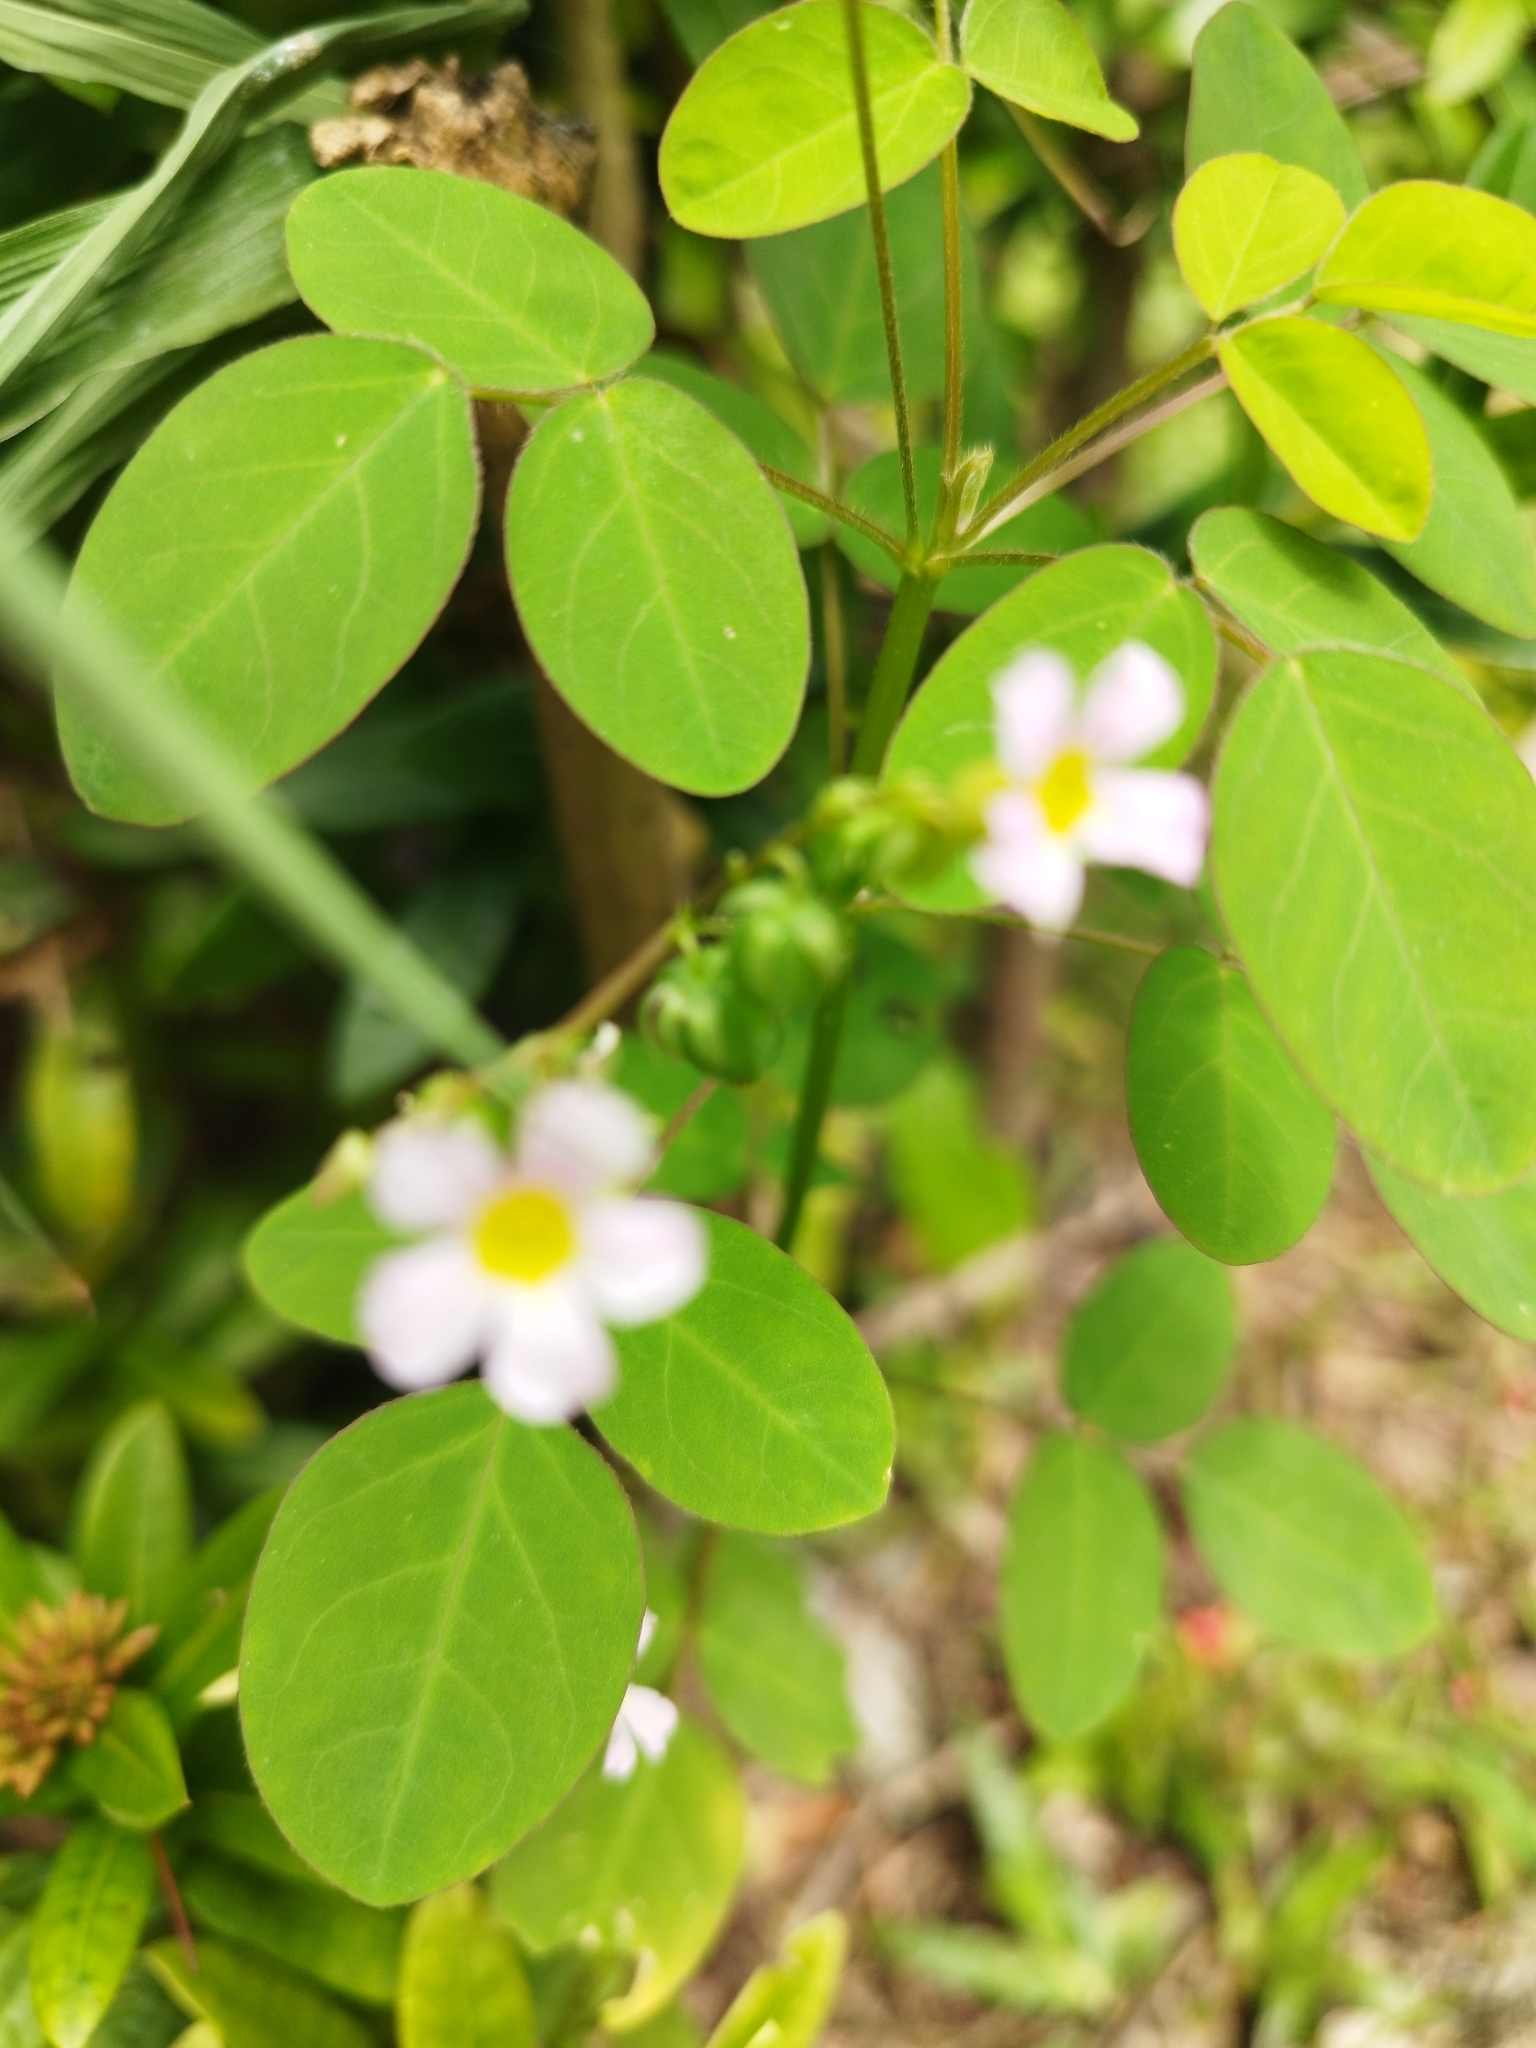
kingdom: Plantae
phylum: Tracheophyta
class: Magnoliopsida
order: Oxalidales
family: Oxalidaceae
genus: Oxalis
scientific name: Oxalis barrelieri
